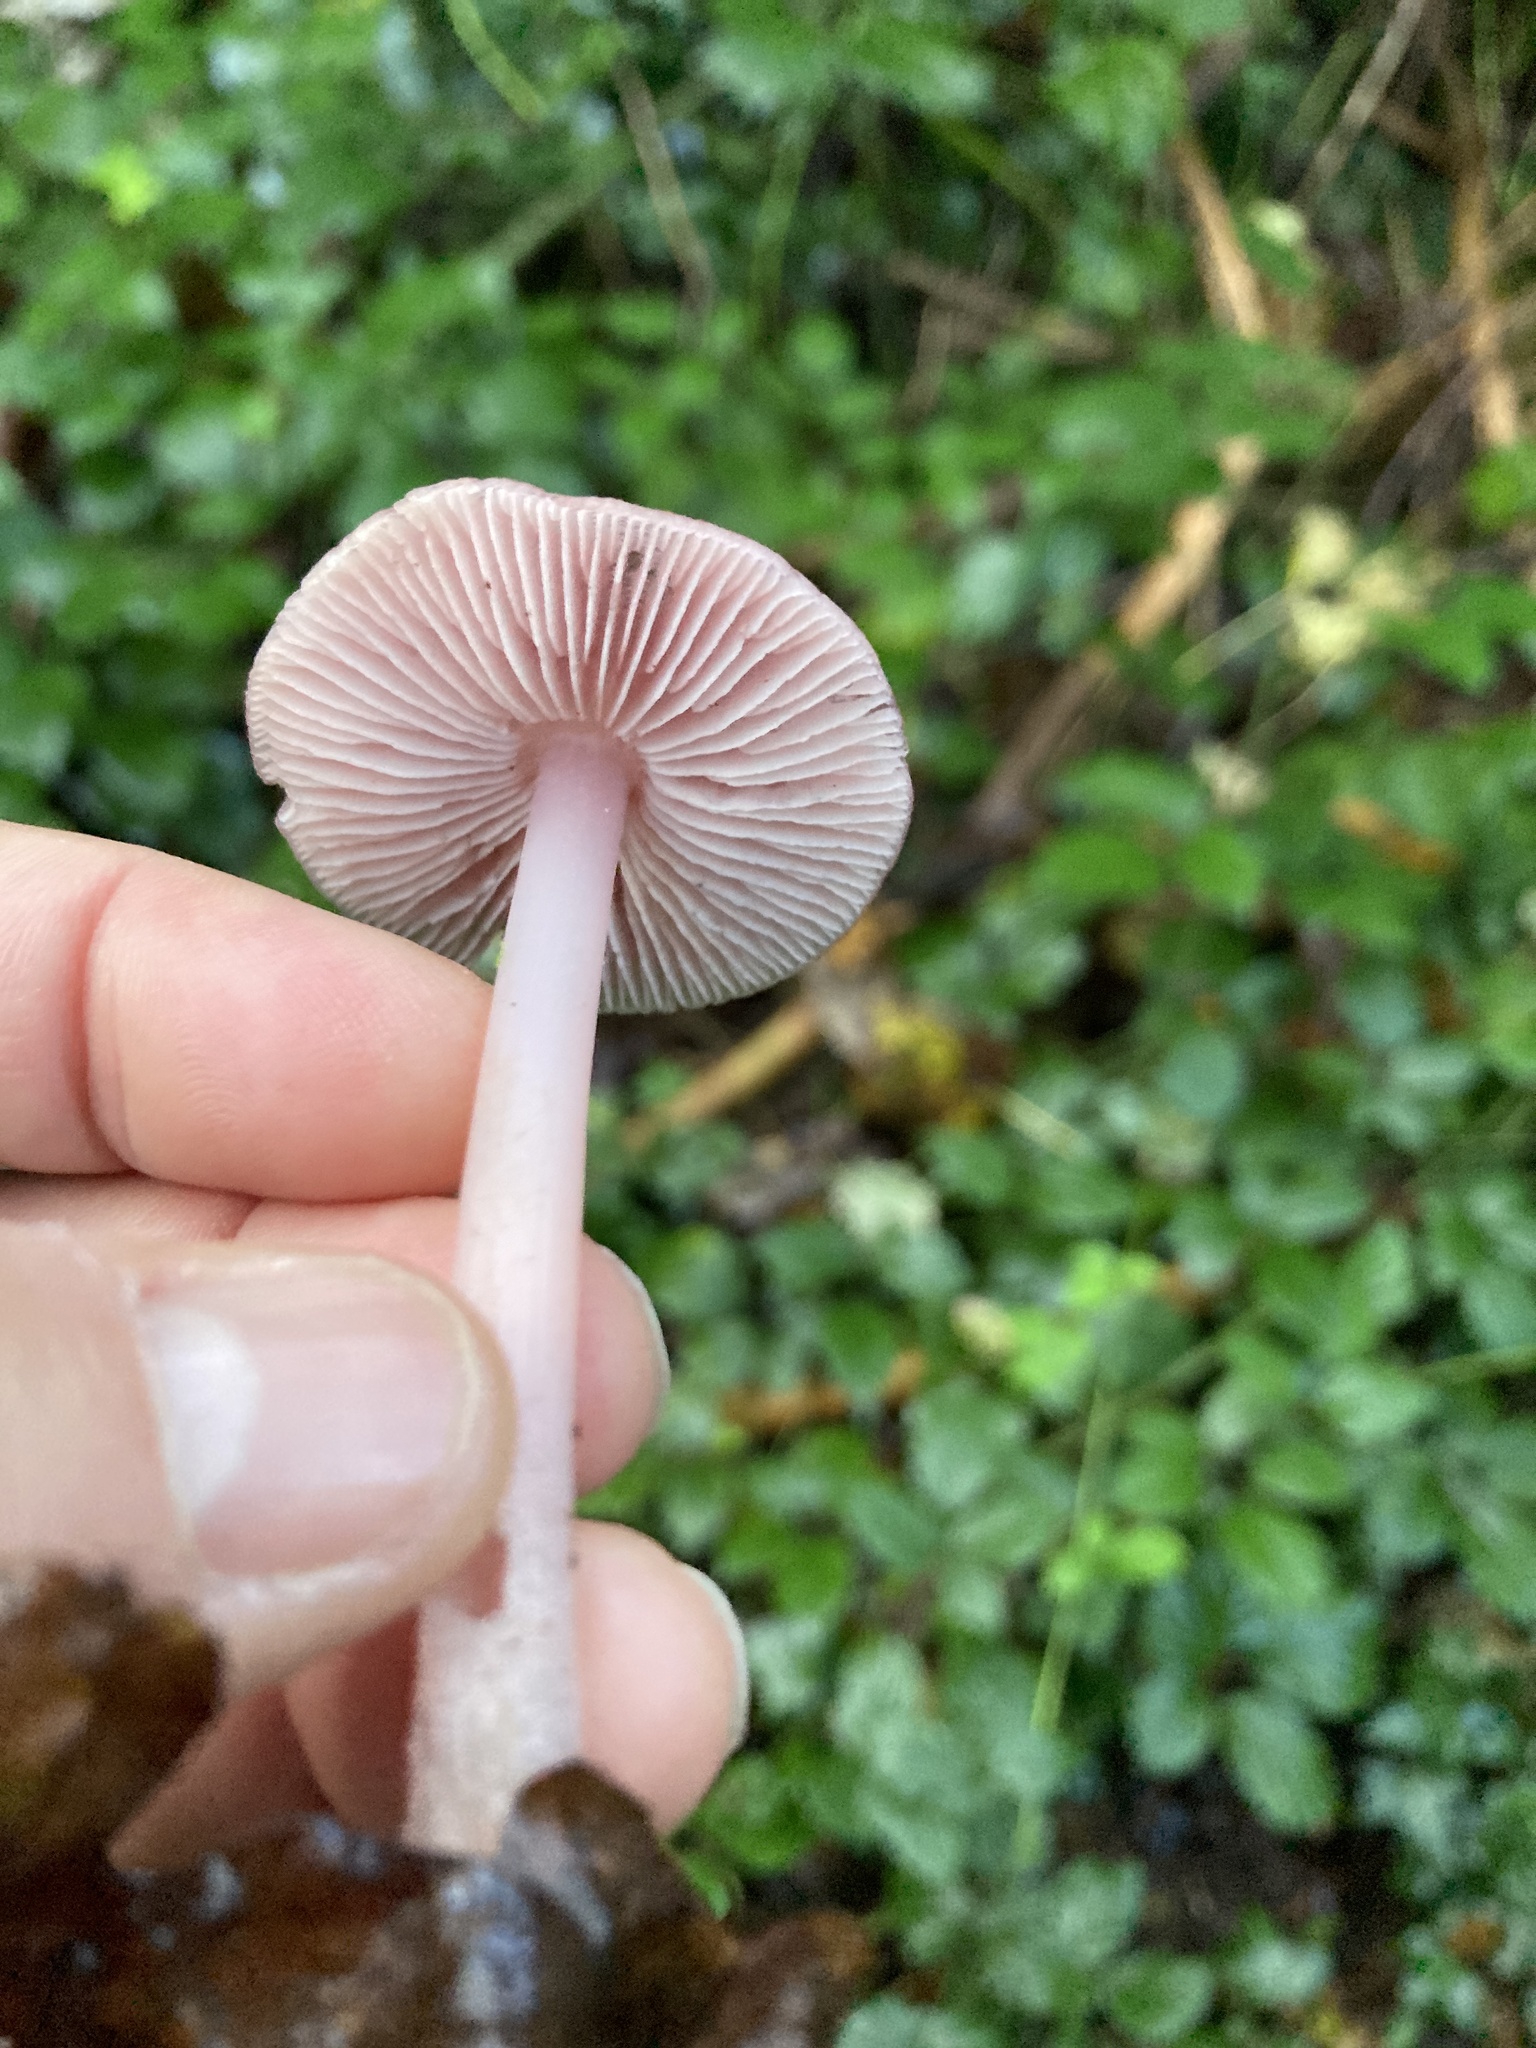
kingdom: Fungi
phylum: Basidiomycota
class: Agaricomycetes
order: Agaricales
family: Mycenaceae
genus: Mycena
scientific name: Mycena rosea
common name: Rosy bonnet
